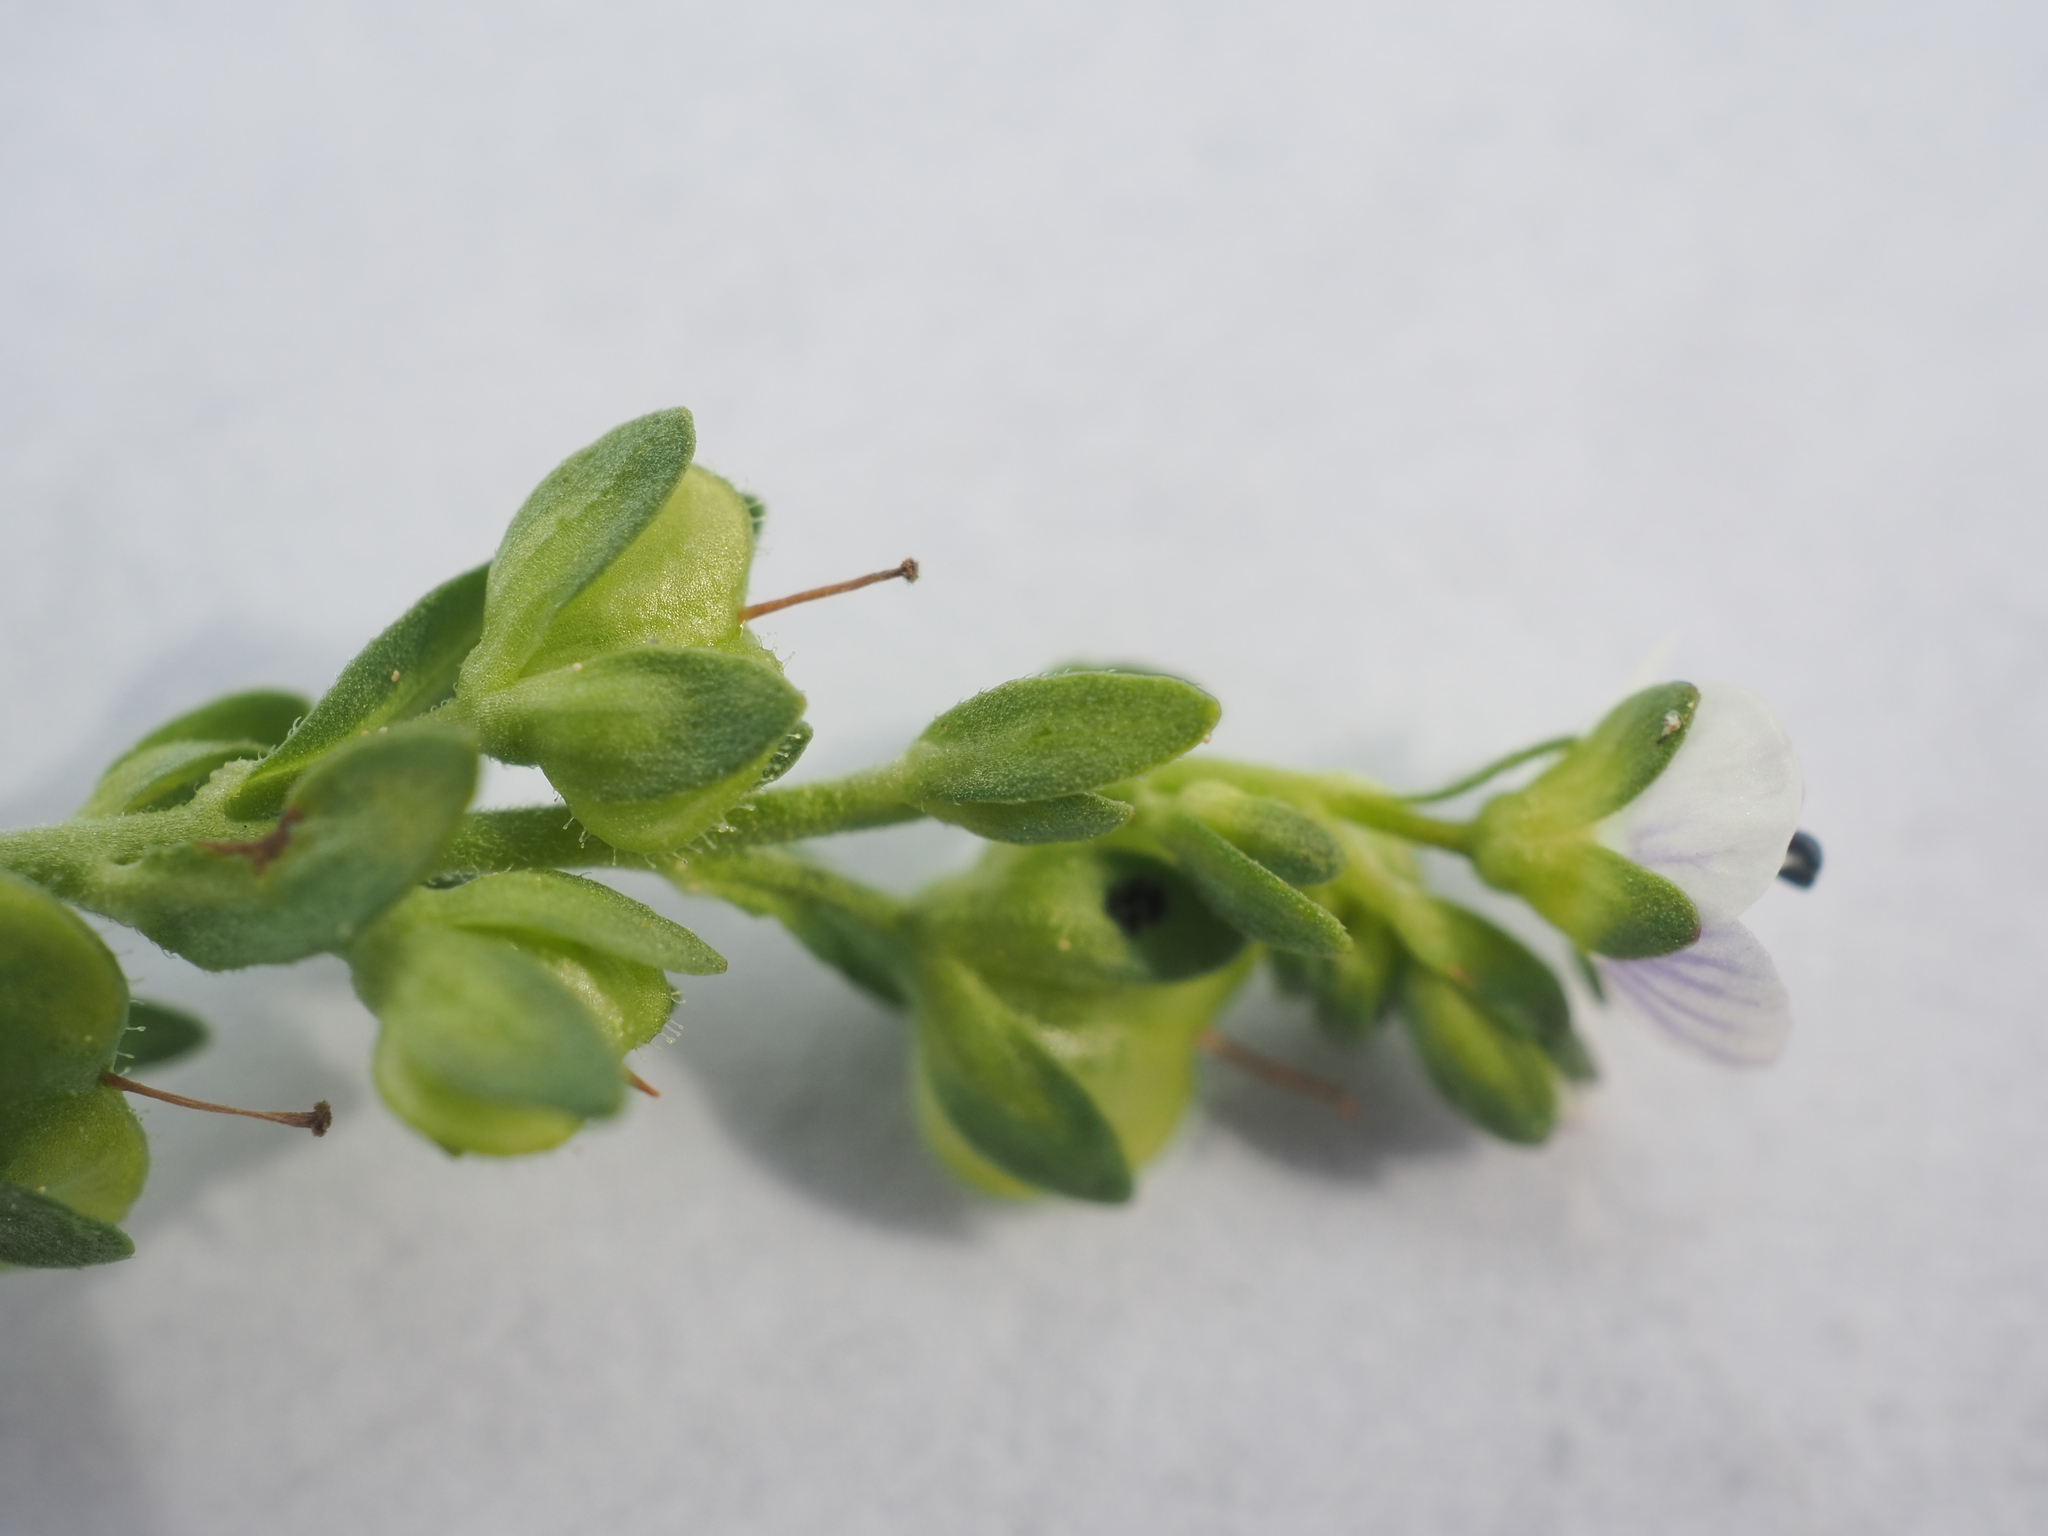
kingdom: Plantae
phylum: Tracheophyta
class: Magnoliopsida
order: Lamiales
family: Plantaginaceae
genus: Veronica
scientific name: Veronica serpyllifolia
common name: Thyme-leaved speedwell
